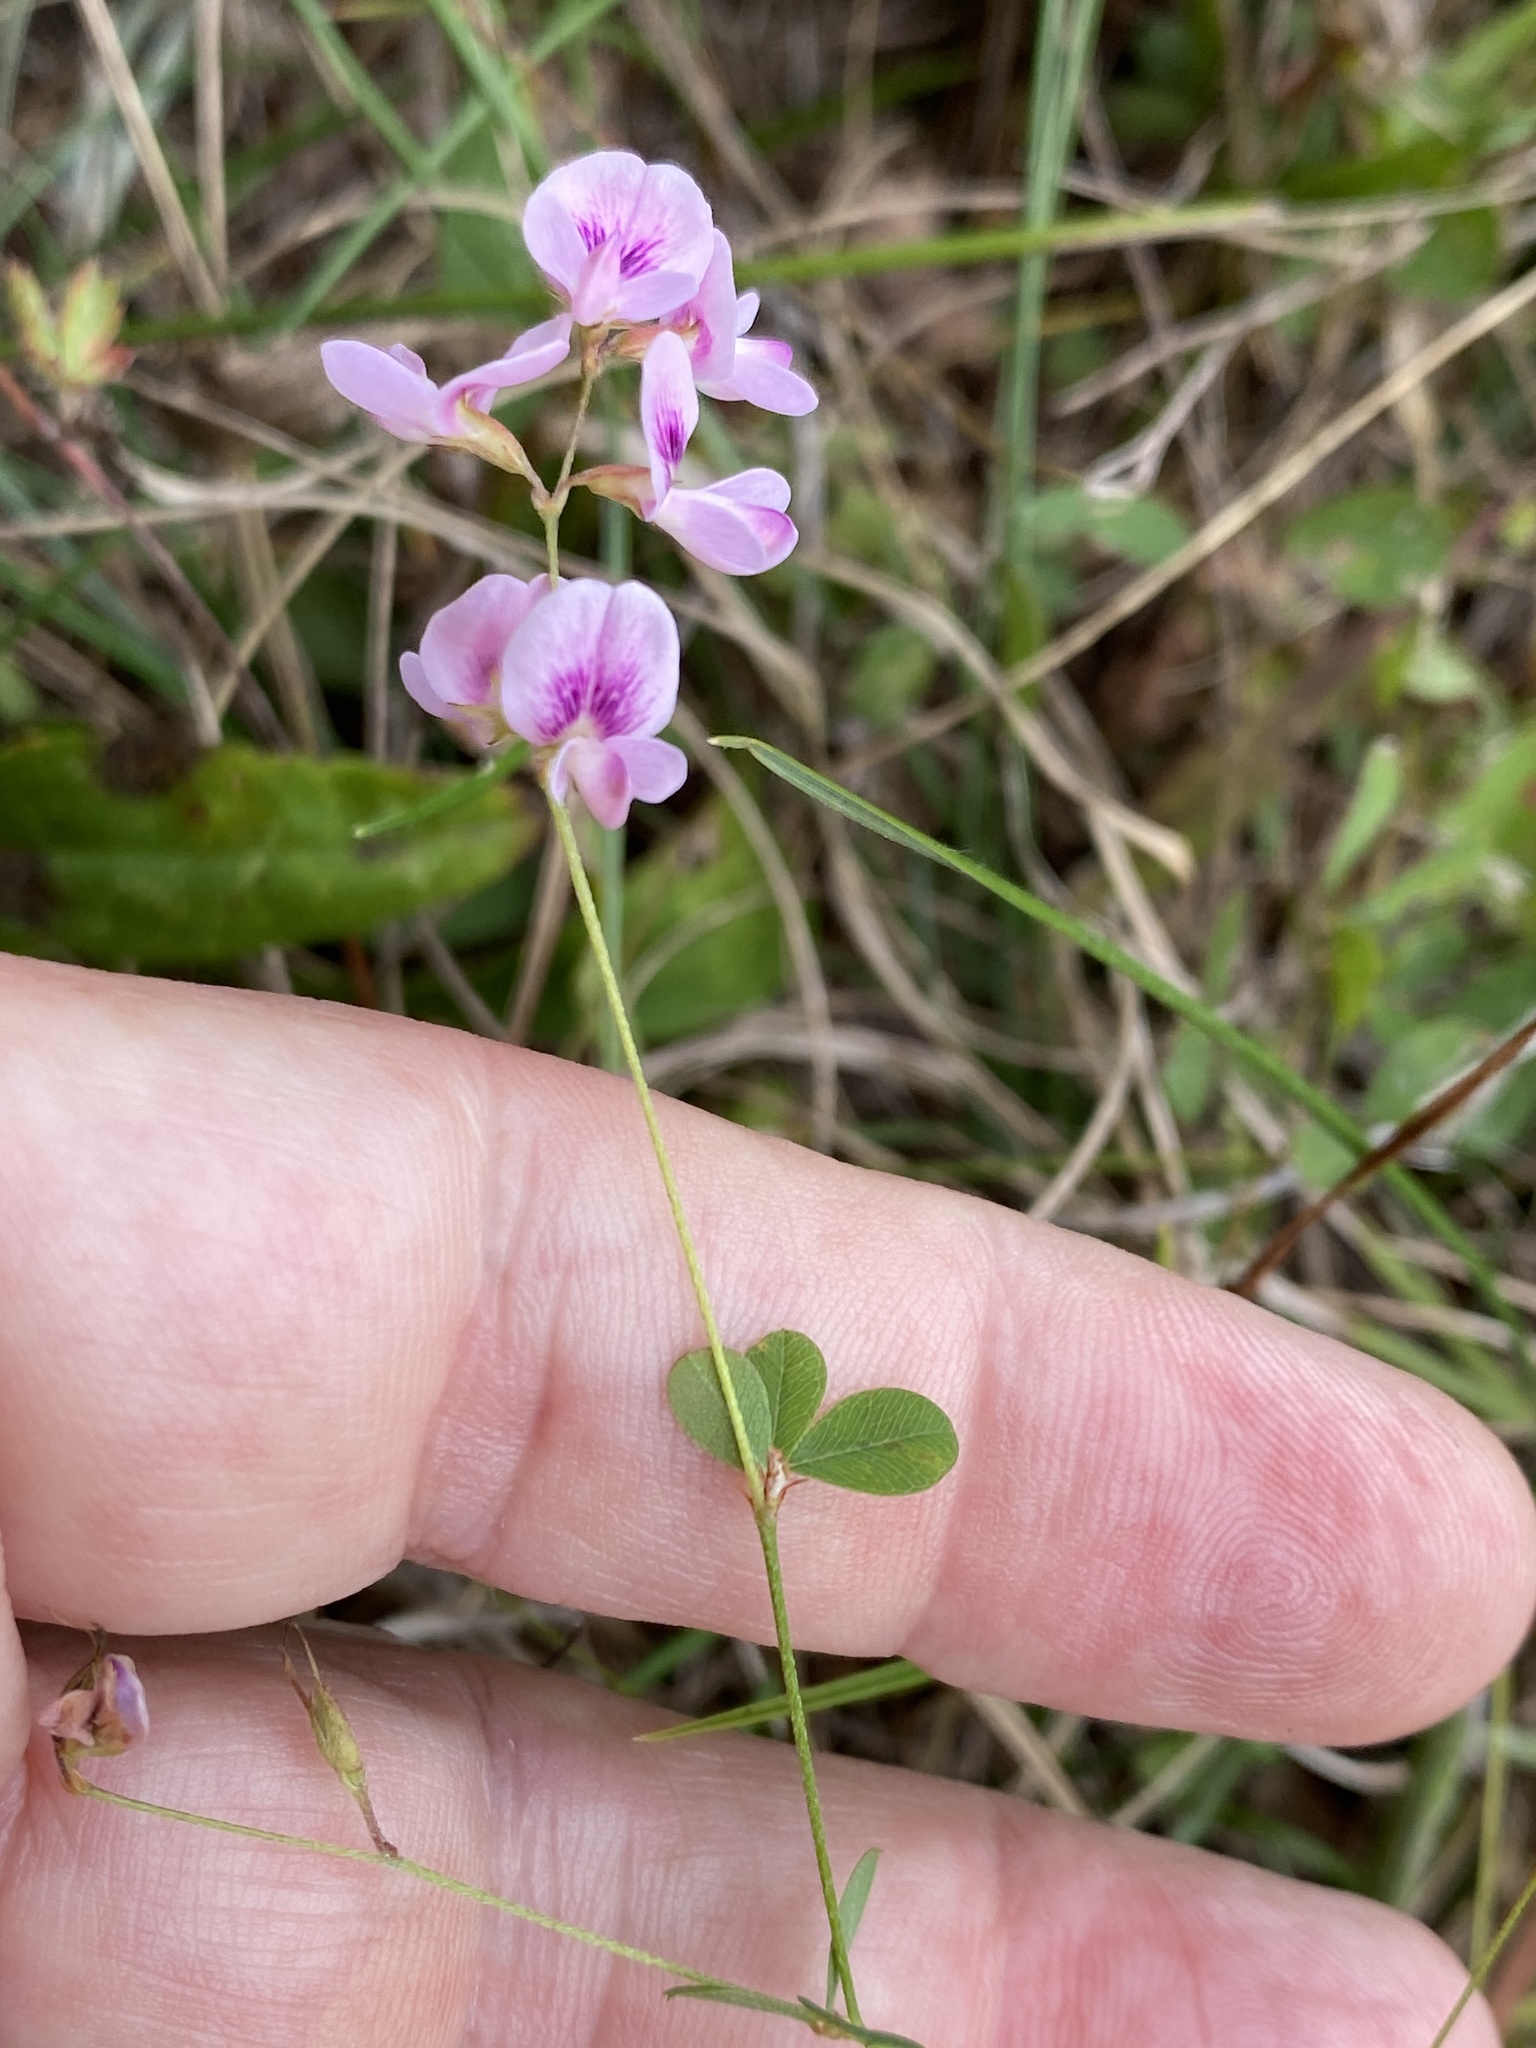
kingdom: Plantae
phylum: Tracheophyta
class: Magnoliopsida
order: Fabales
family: Fabaceae
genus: Lespedeza
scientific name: Lespedeza repens
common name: Creeping bush-clover
